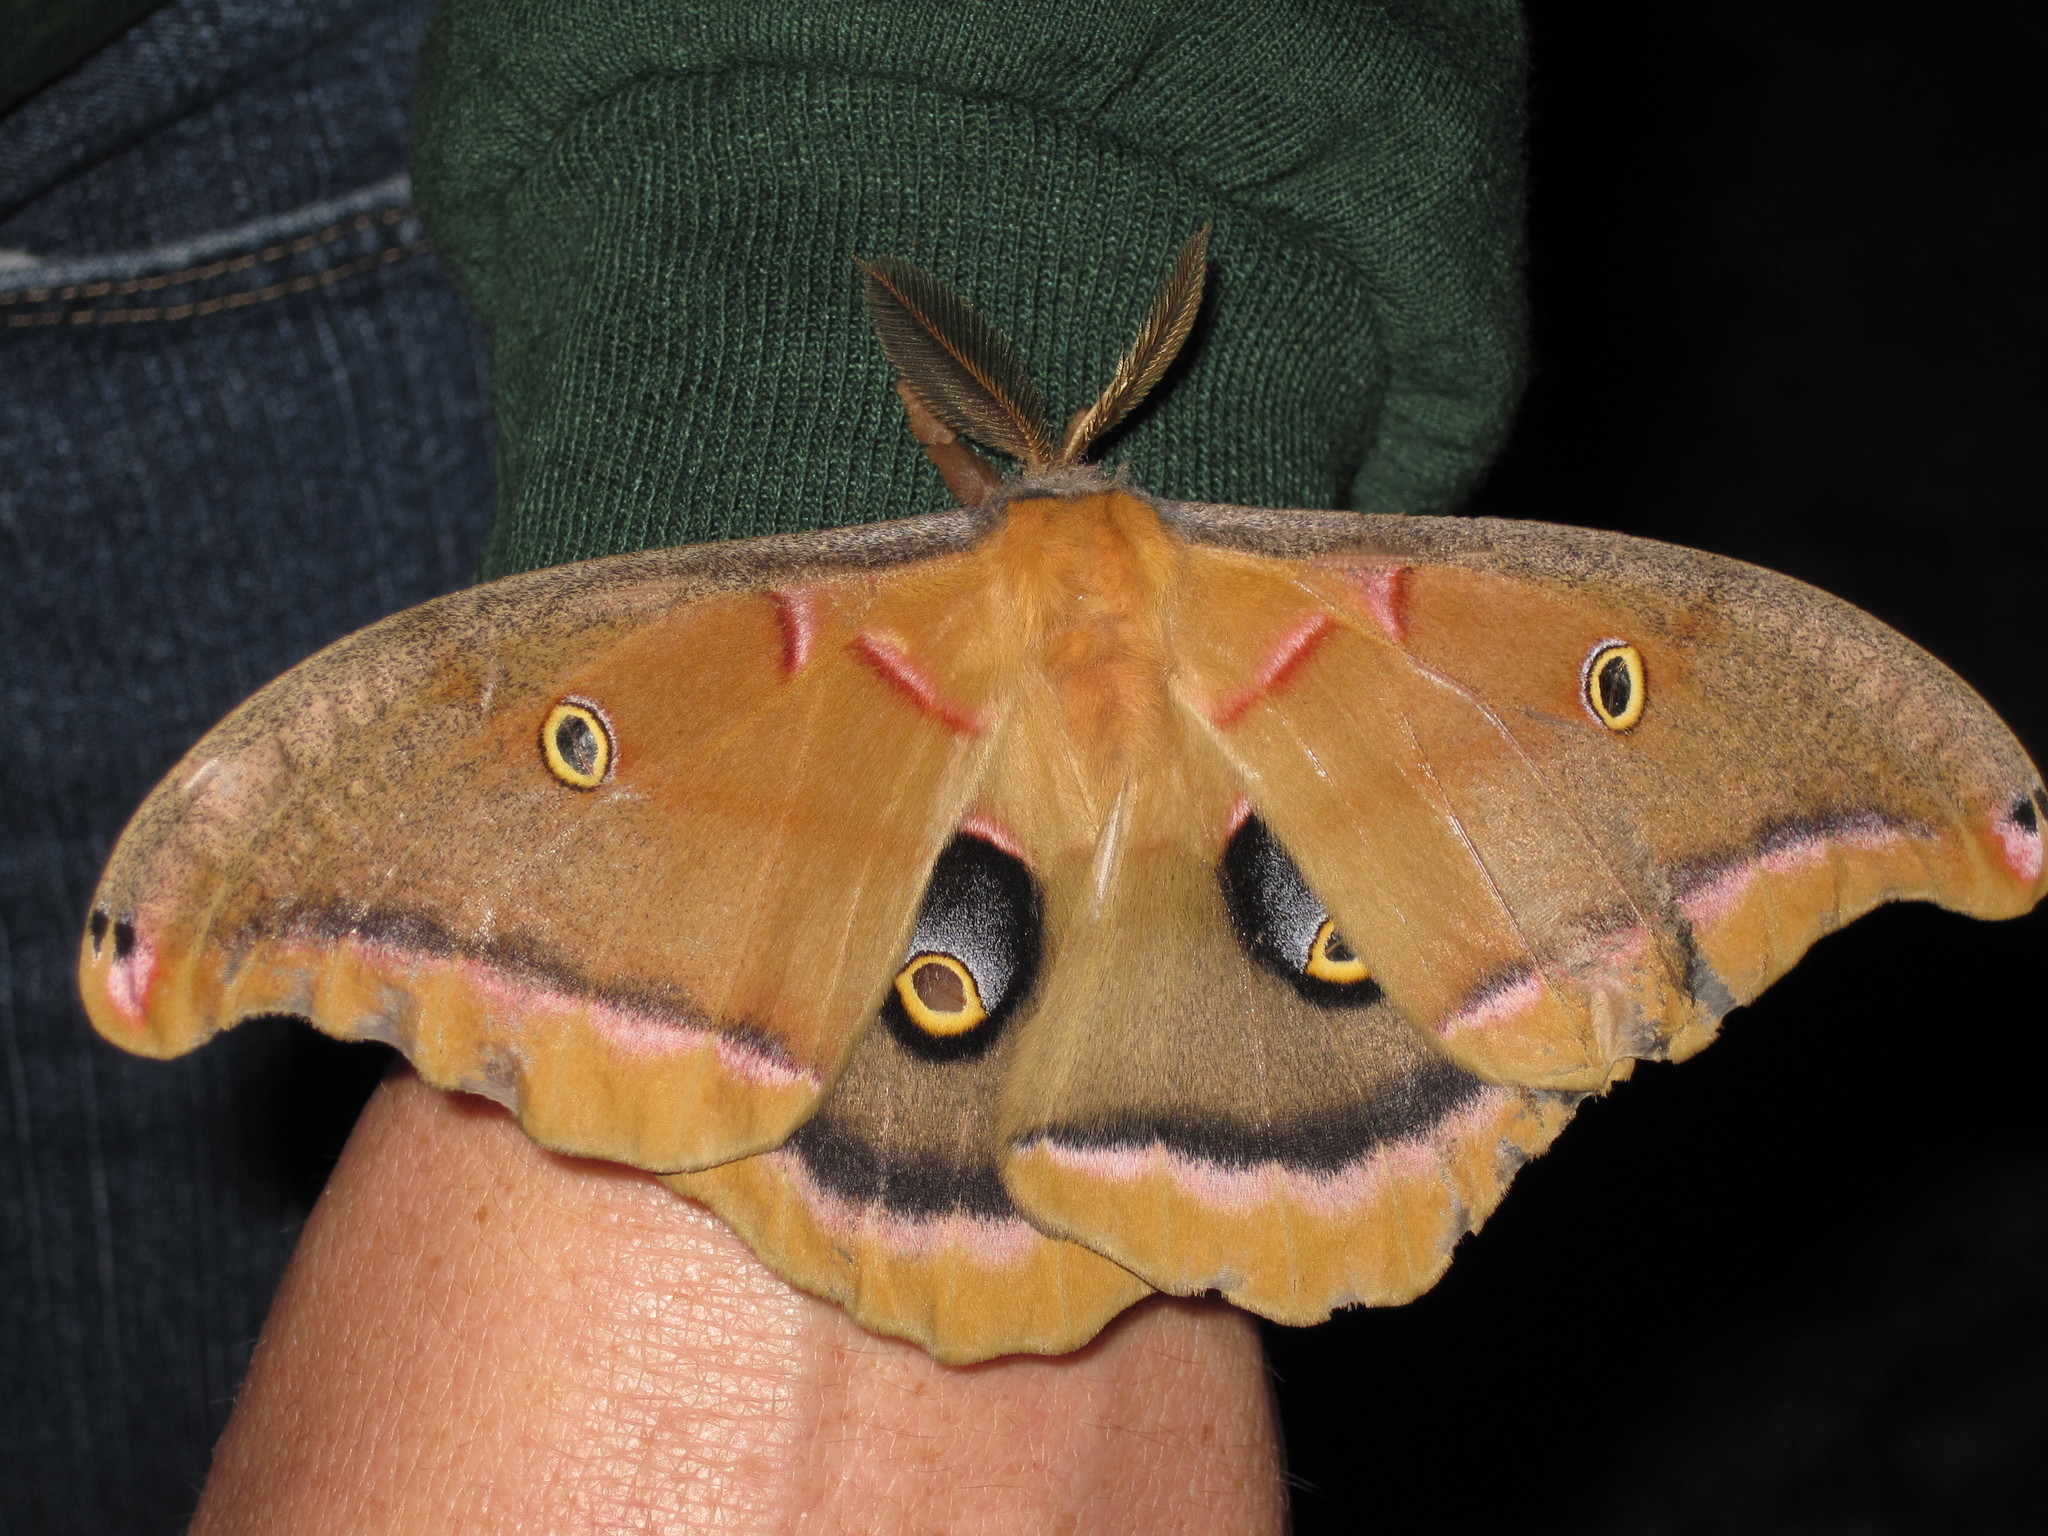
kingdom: Animalia
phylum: Arthropoda
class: Insecta
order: Lepidoptera
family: Saturniidae
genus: Antheraea
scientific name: Antheraea polyphemus
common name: Polyphemus moth
